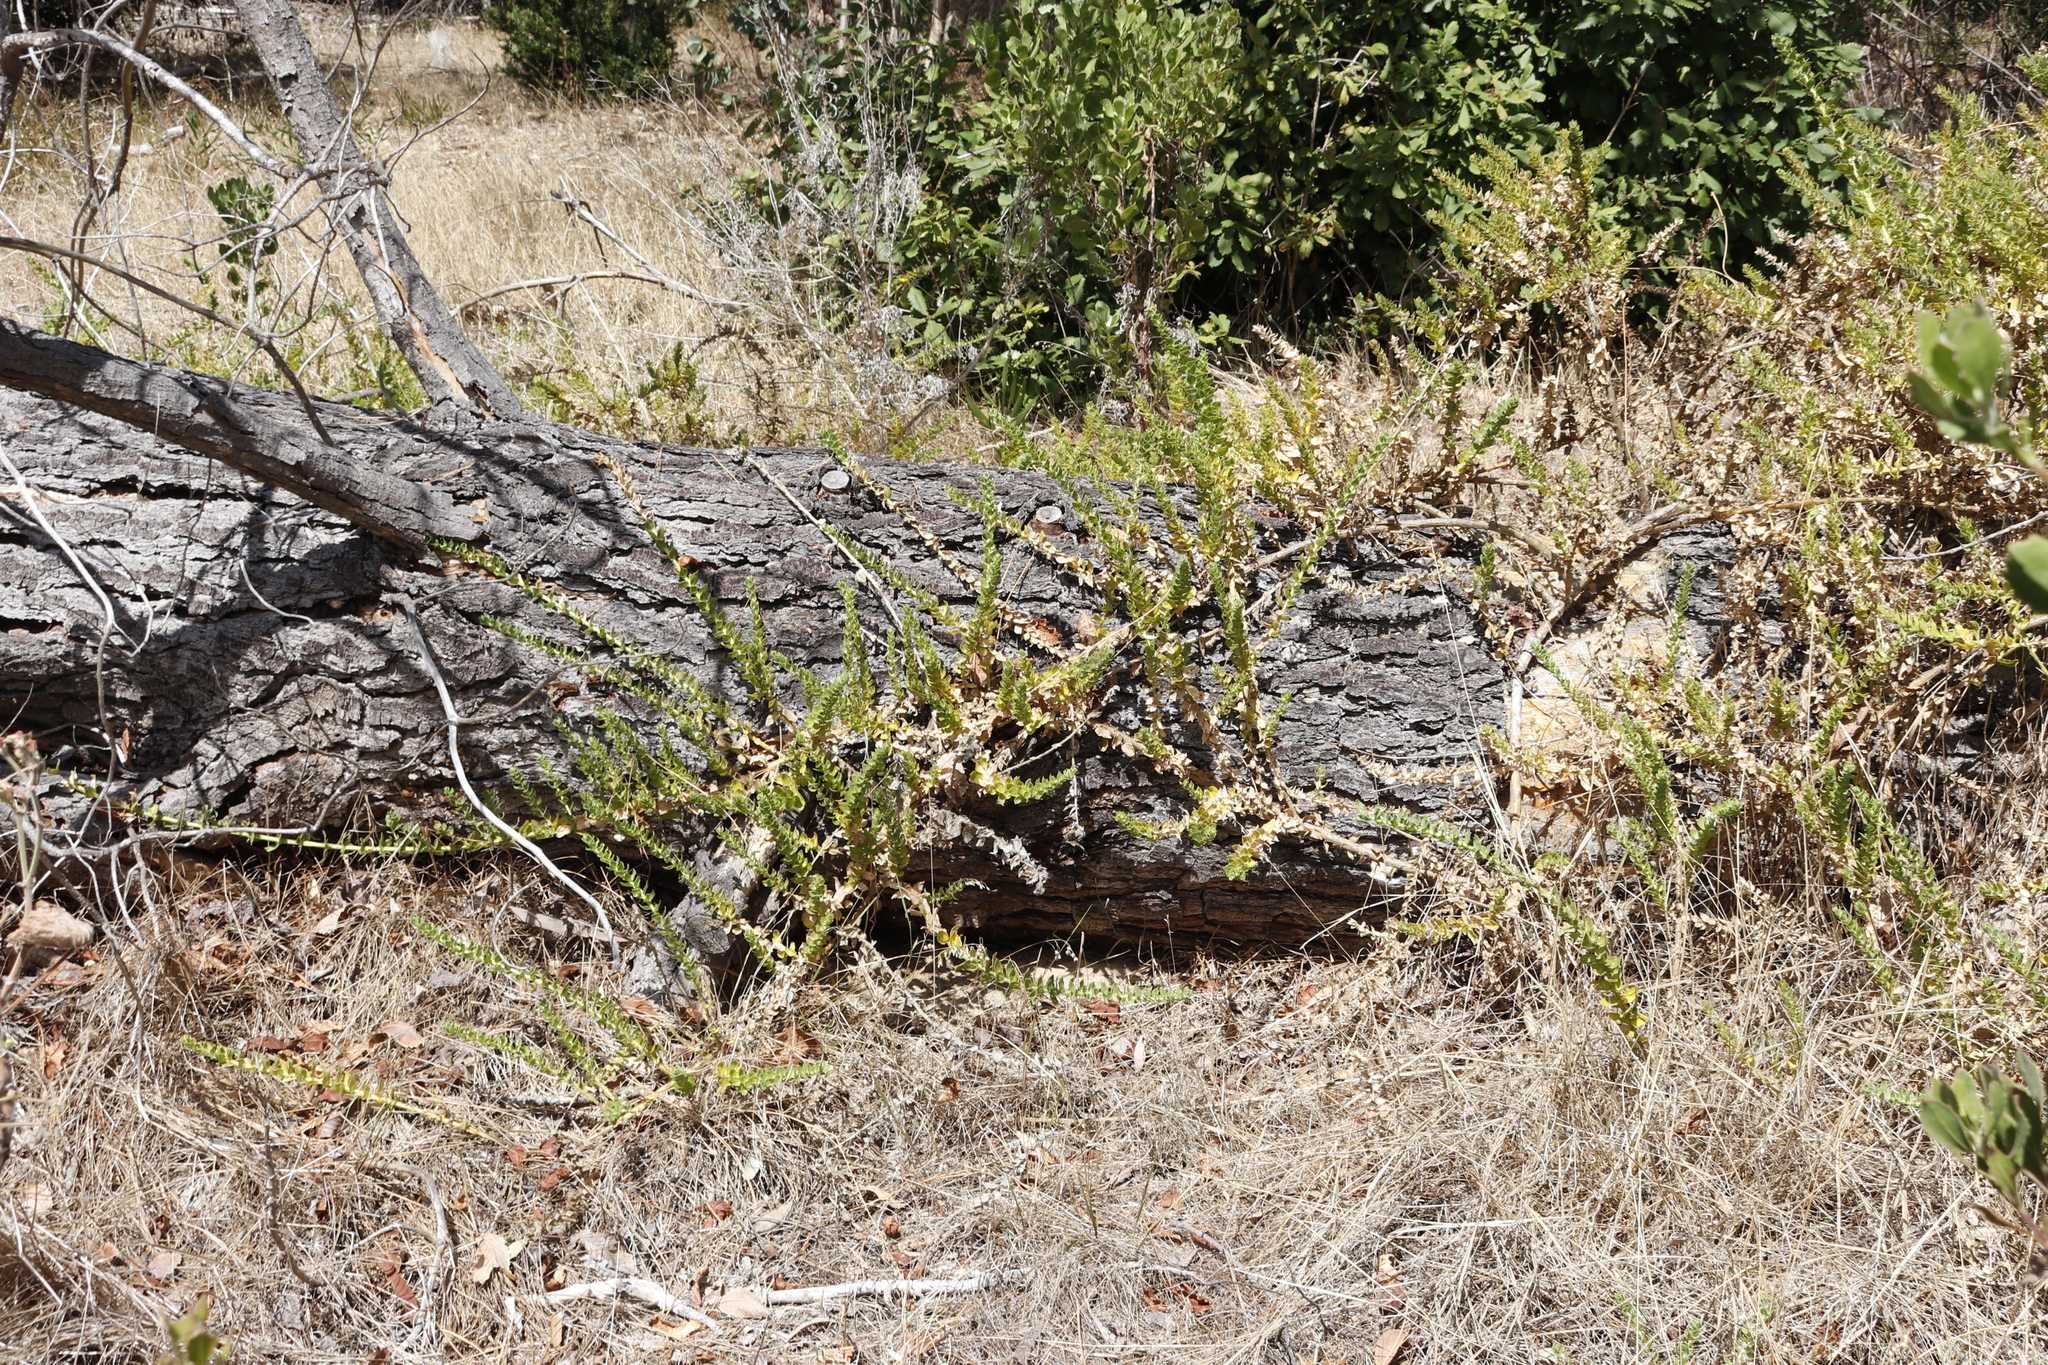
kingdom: Plantae
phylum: Tracheophyta
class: Magnoliopsida
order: Lamiales
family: Scrophulariaceae
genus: Oftia
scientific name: Oftia africana
